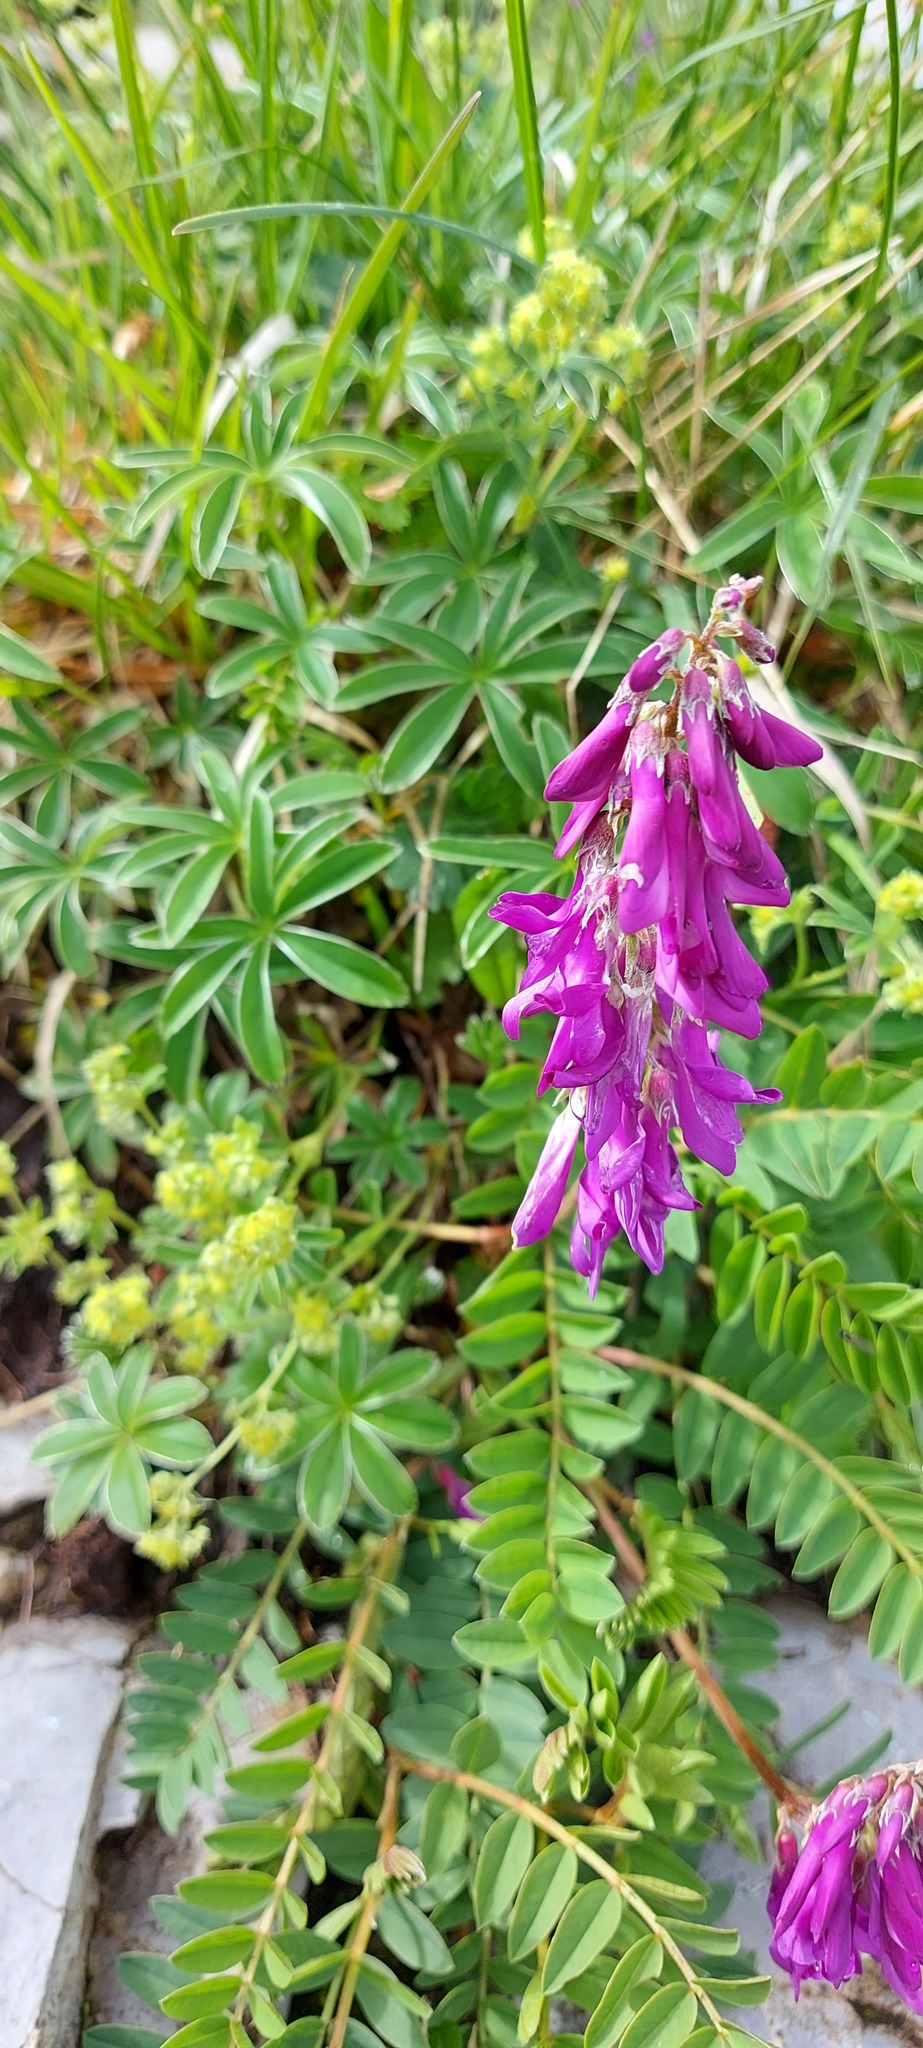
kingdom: Plantae
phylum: Tracheophyta
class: Magnoliopsida
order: Fabales
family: Fabaceae
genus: Hedysarum
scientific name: Hedysarum hedysaroides
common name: Alpine french-honeysuckle
